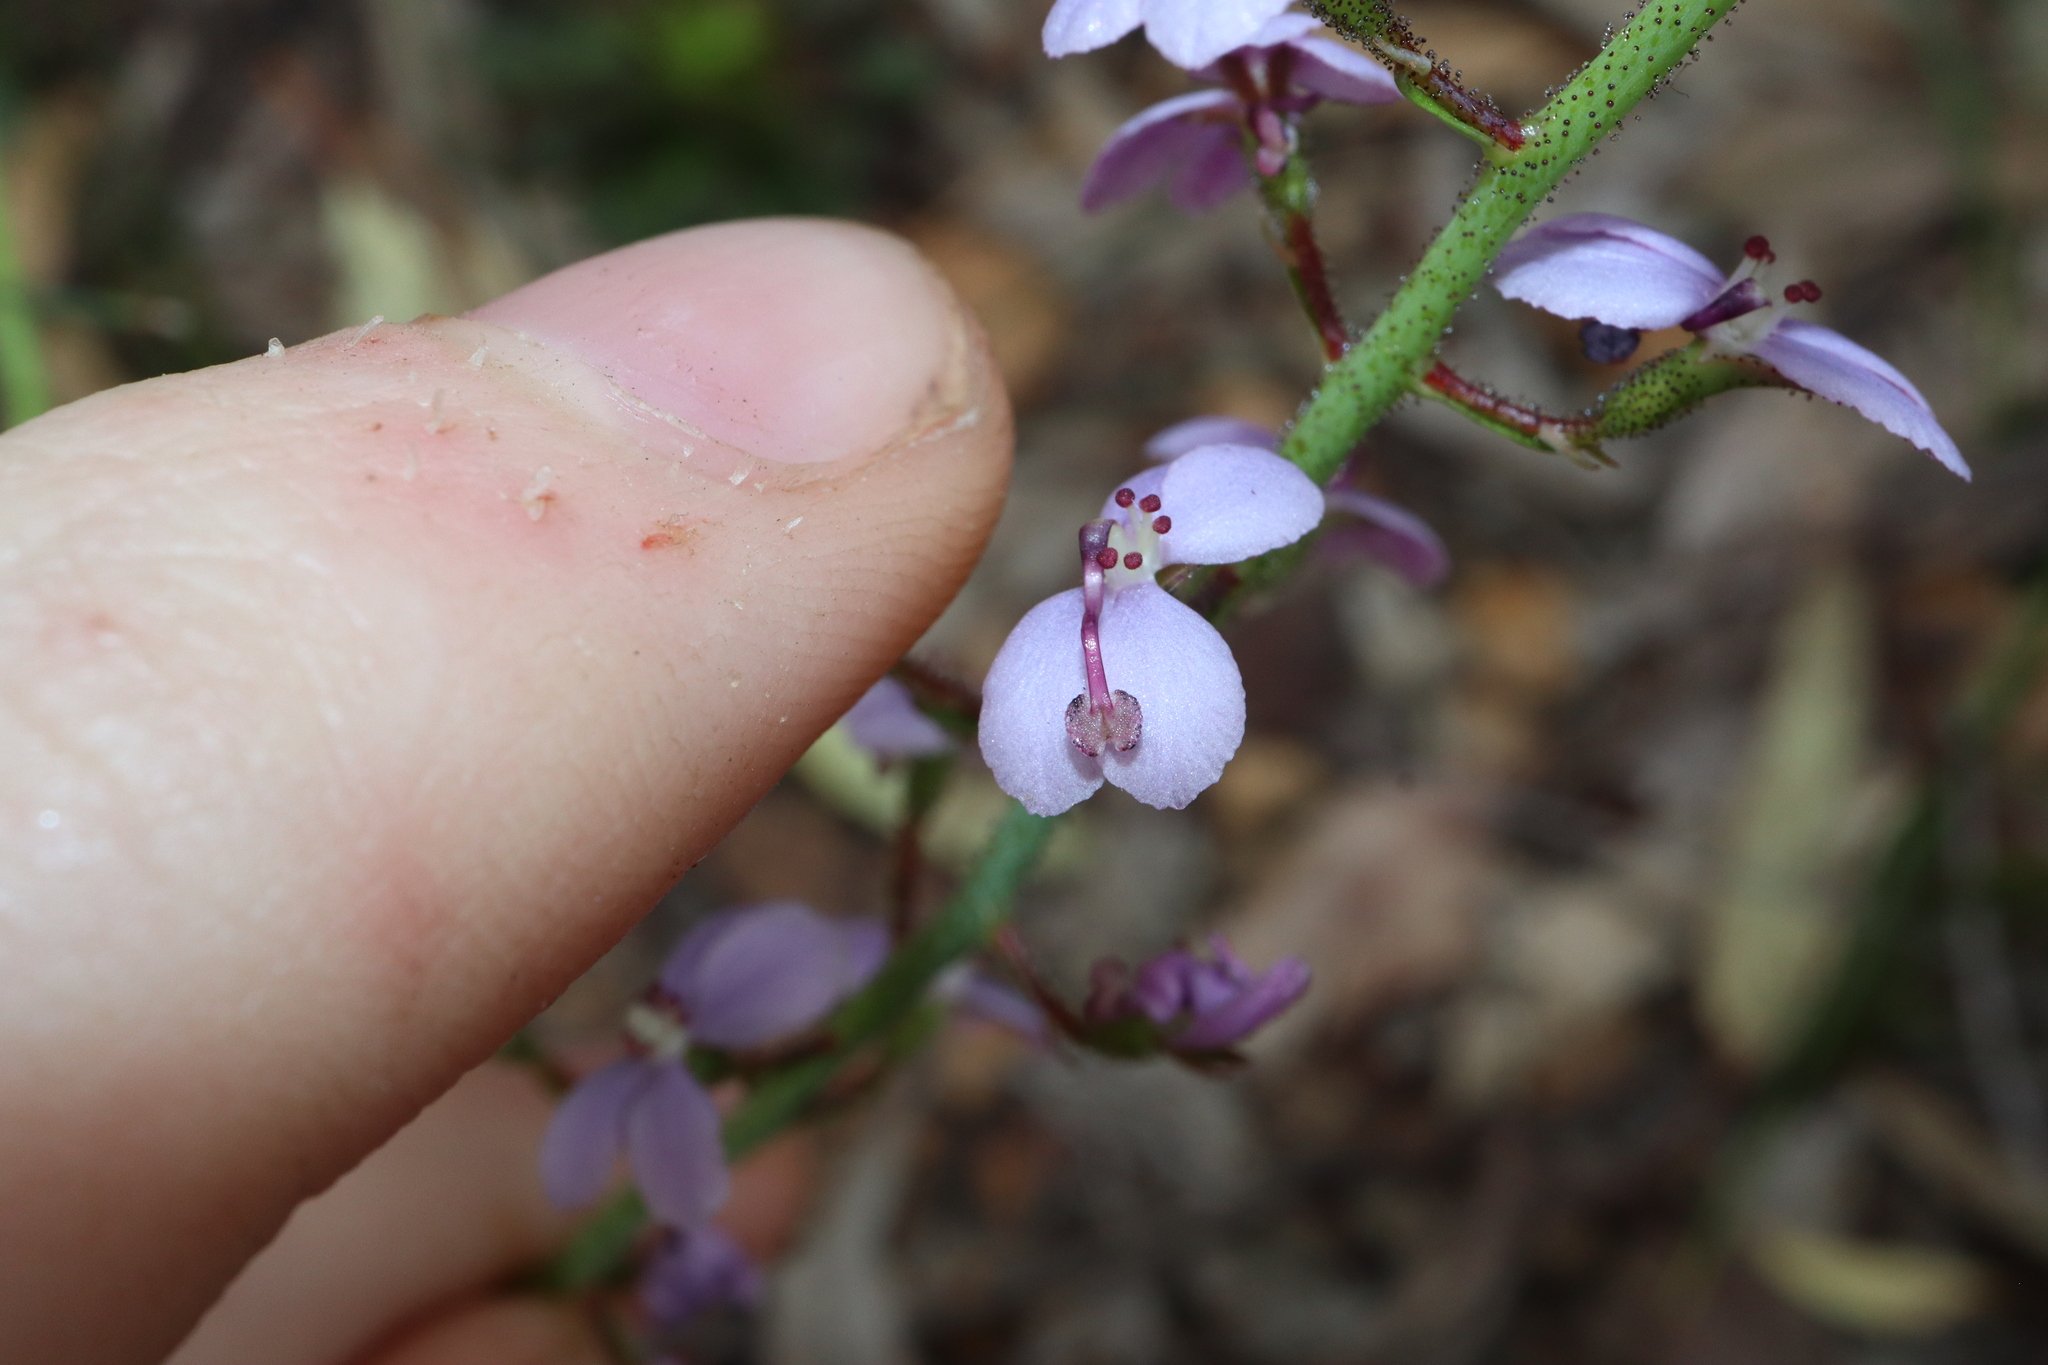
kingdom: Plantae
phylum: Tracheophyta
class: Magnoliopsida
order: Asterales
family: Stylidiaceae
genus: Stylidium
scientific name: Stylidium amoenum
